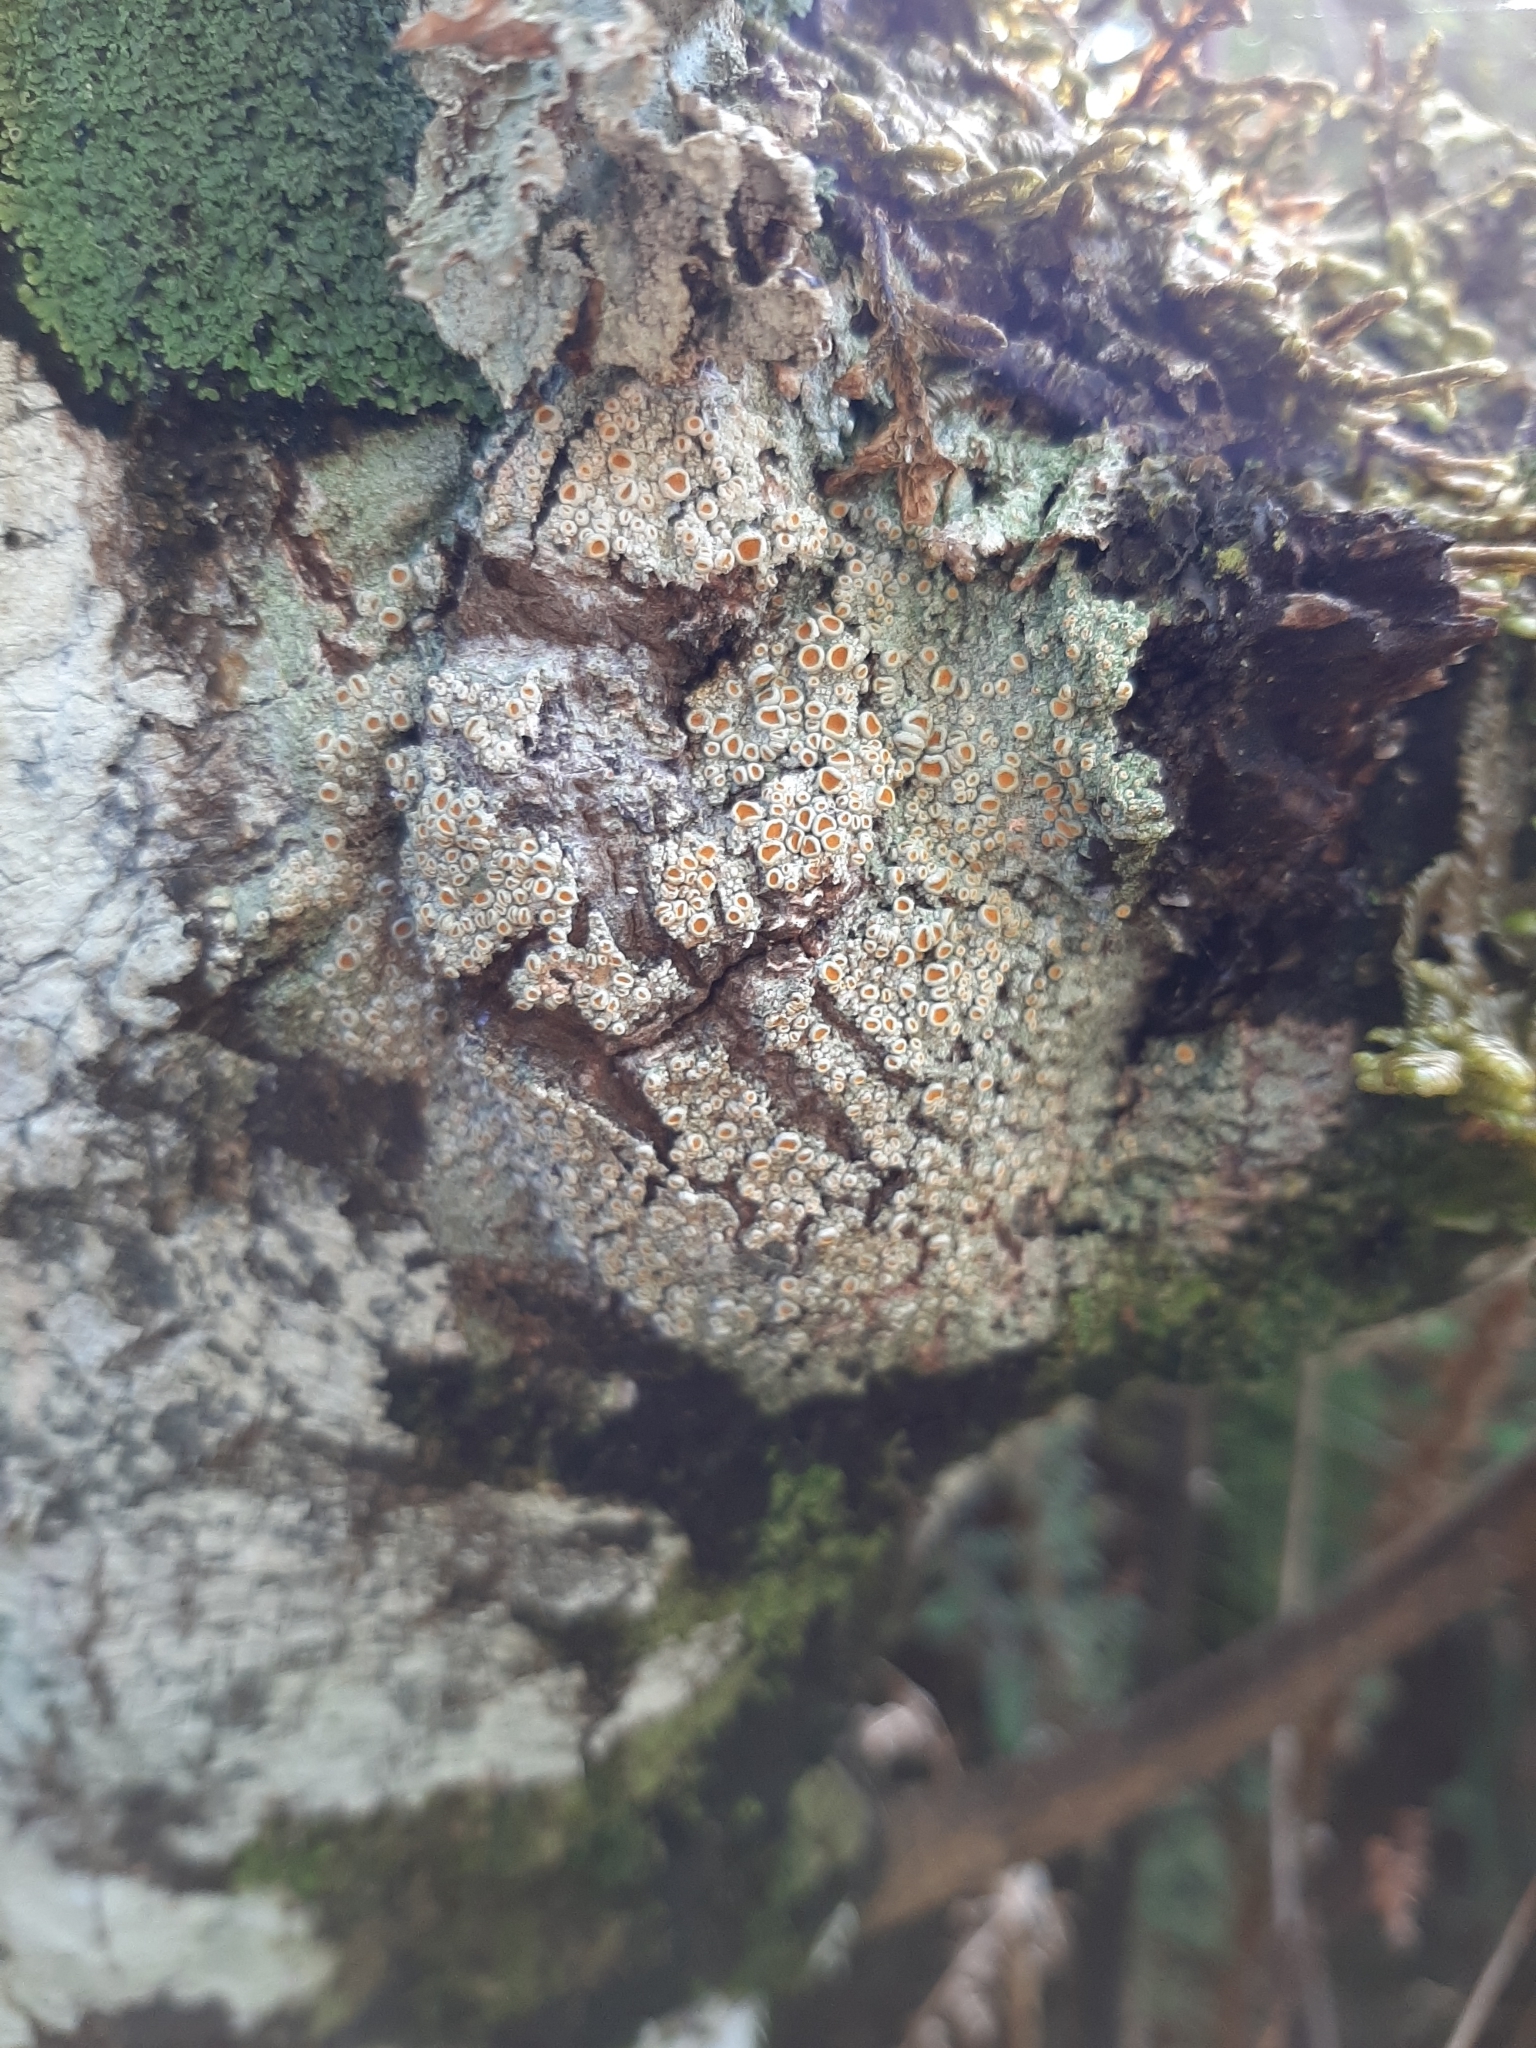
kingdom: Fungi
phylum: Ascomycota
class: Lecanoromycetes
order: Teloschistales
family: Brigantiaeaceae
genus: Brigantiaea
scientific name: Brigantiaea chrysosticta
